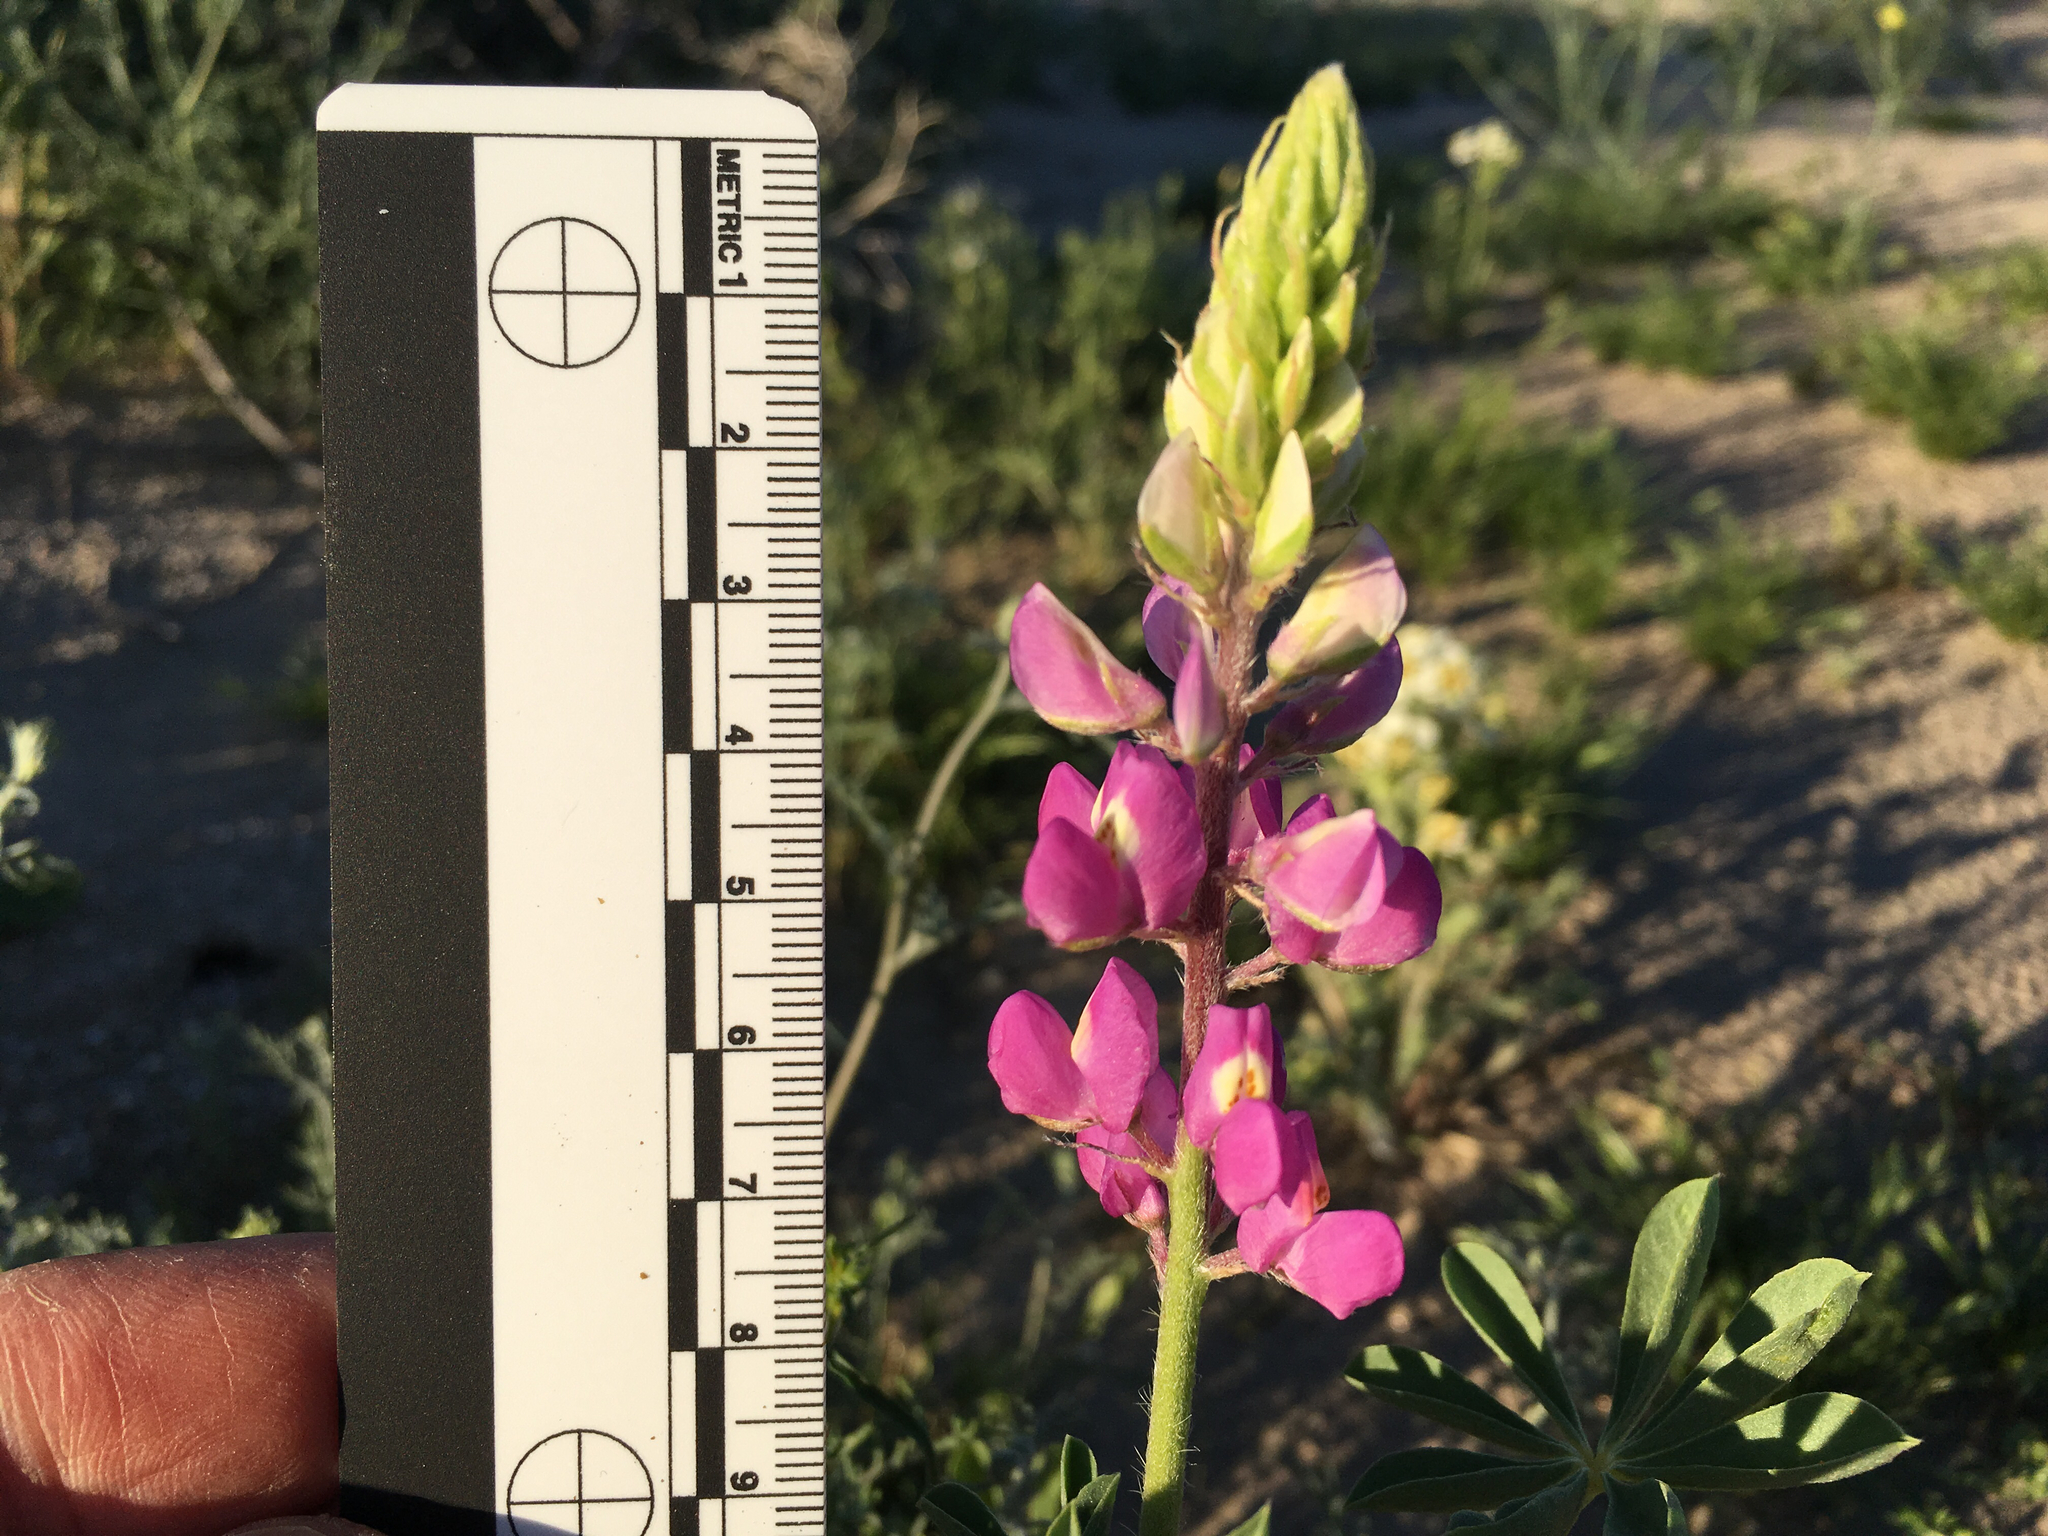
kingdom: Plantae
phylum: Tracheophyta
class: Magnoliopsida
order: Fabales
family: Fabaceae
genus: Lupinus
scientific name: Lupinus arizonicus
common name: Arizona lupine
